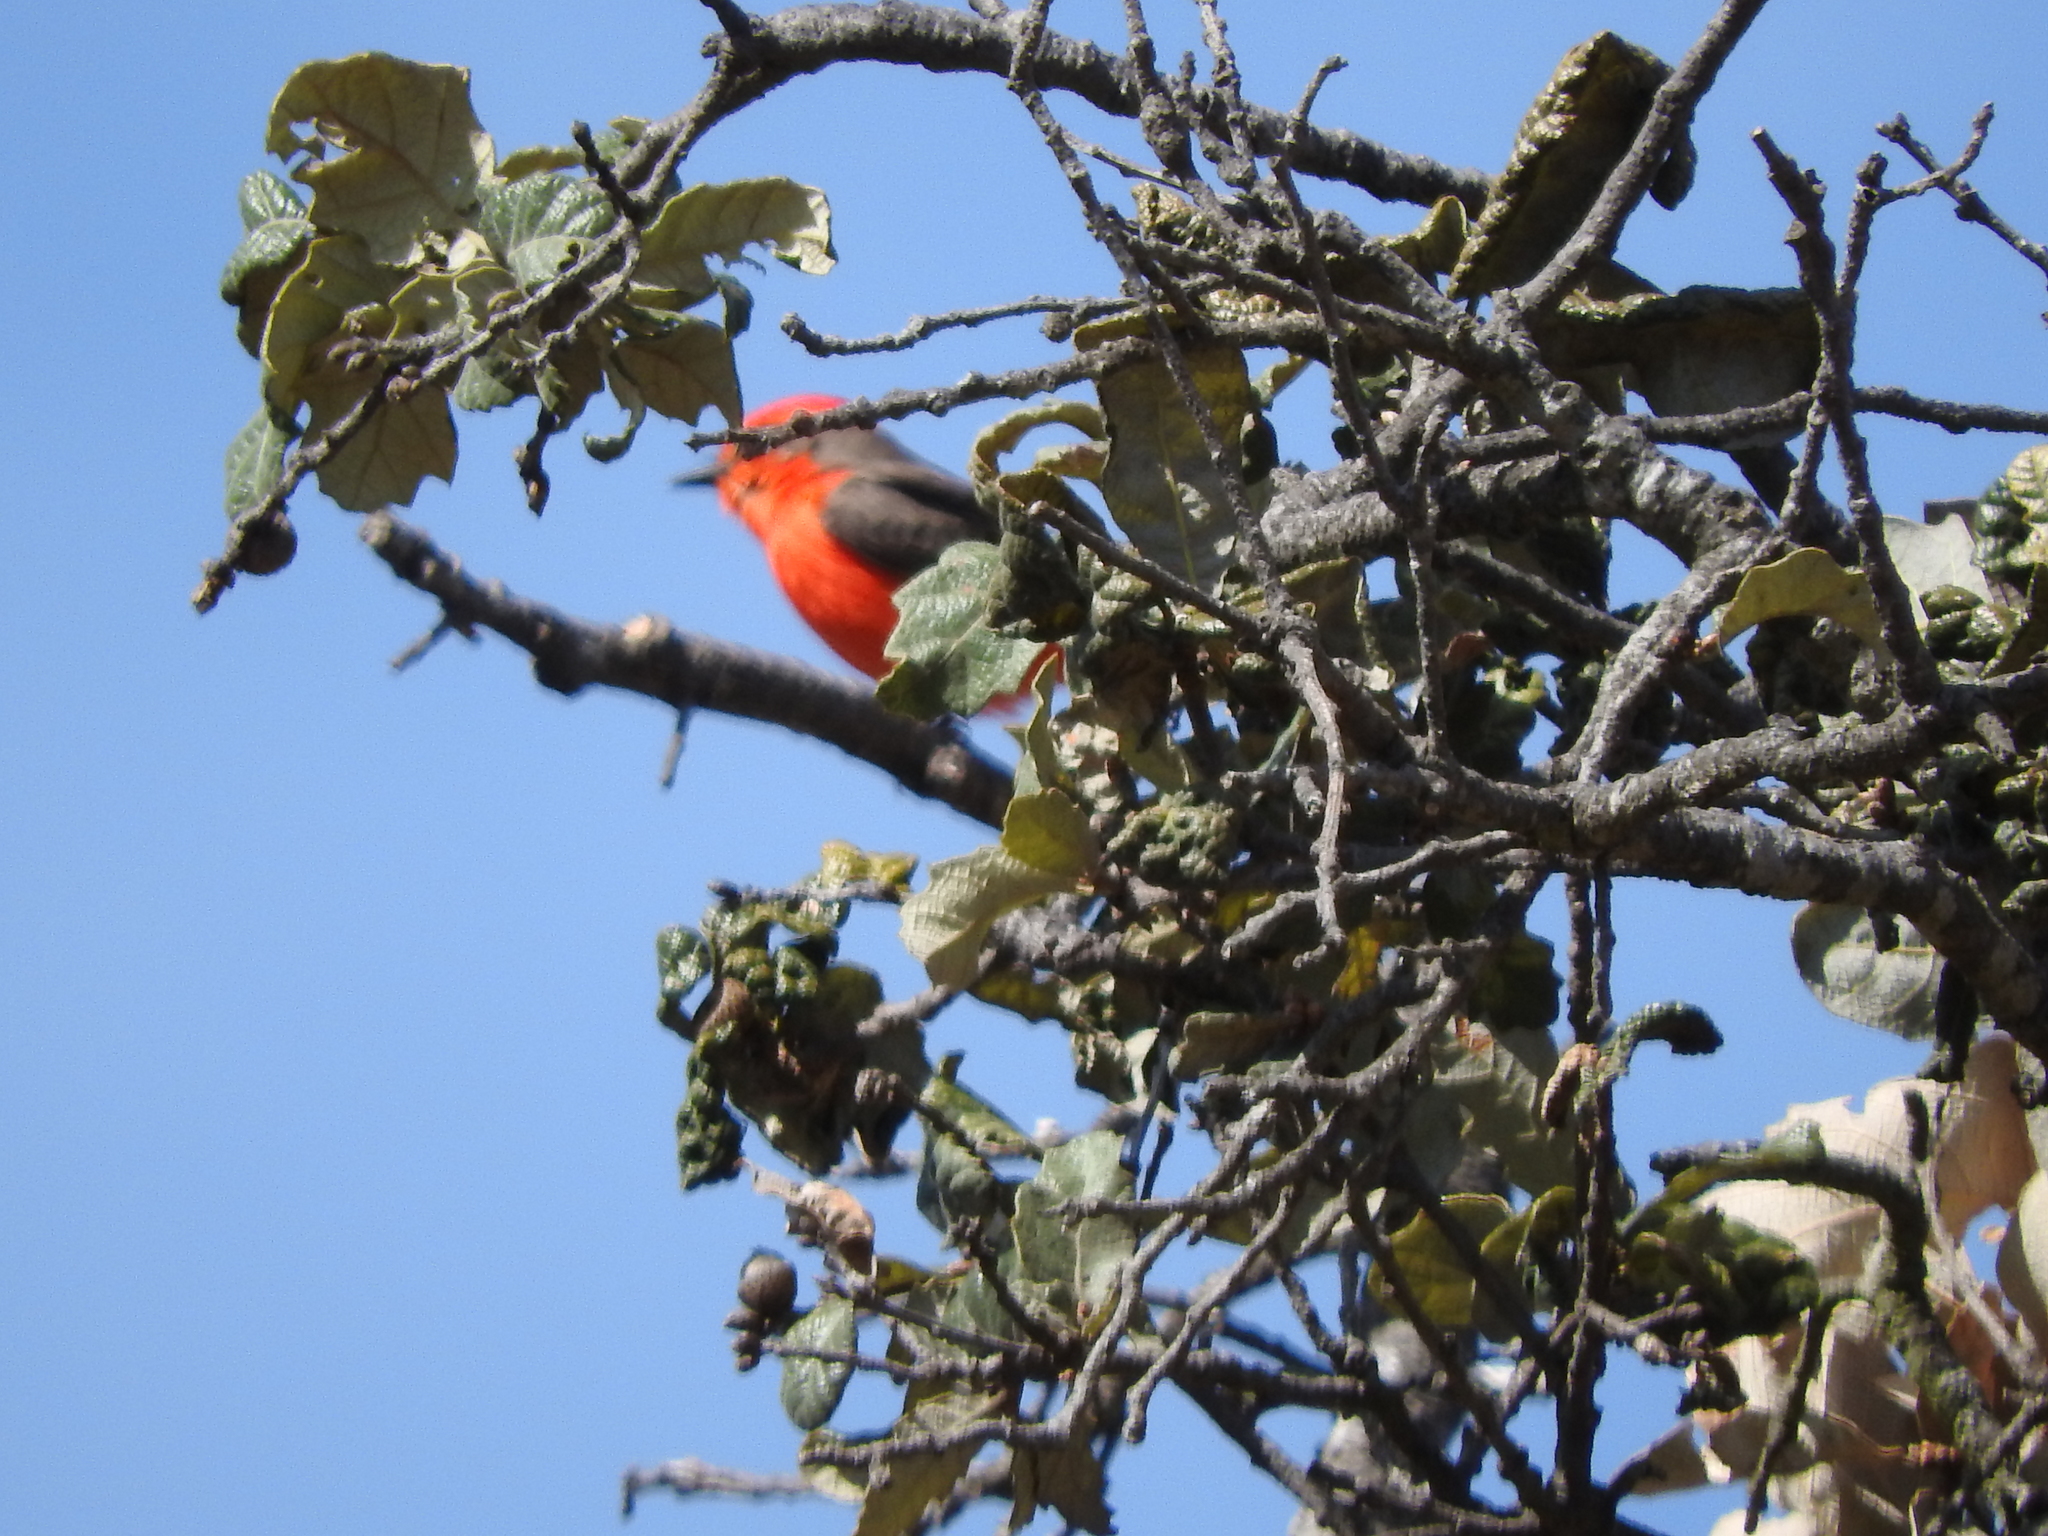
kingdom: Animalia
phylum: Chordata
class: Aves
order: Passeriformes
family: Tyrannidae
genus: Pyrocephalus
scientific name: Pyrocephalus rubinus
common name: Vermilion flycatcher
